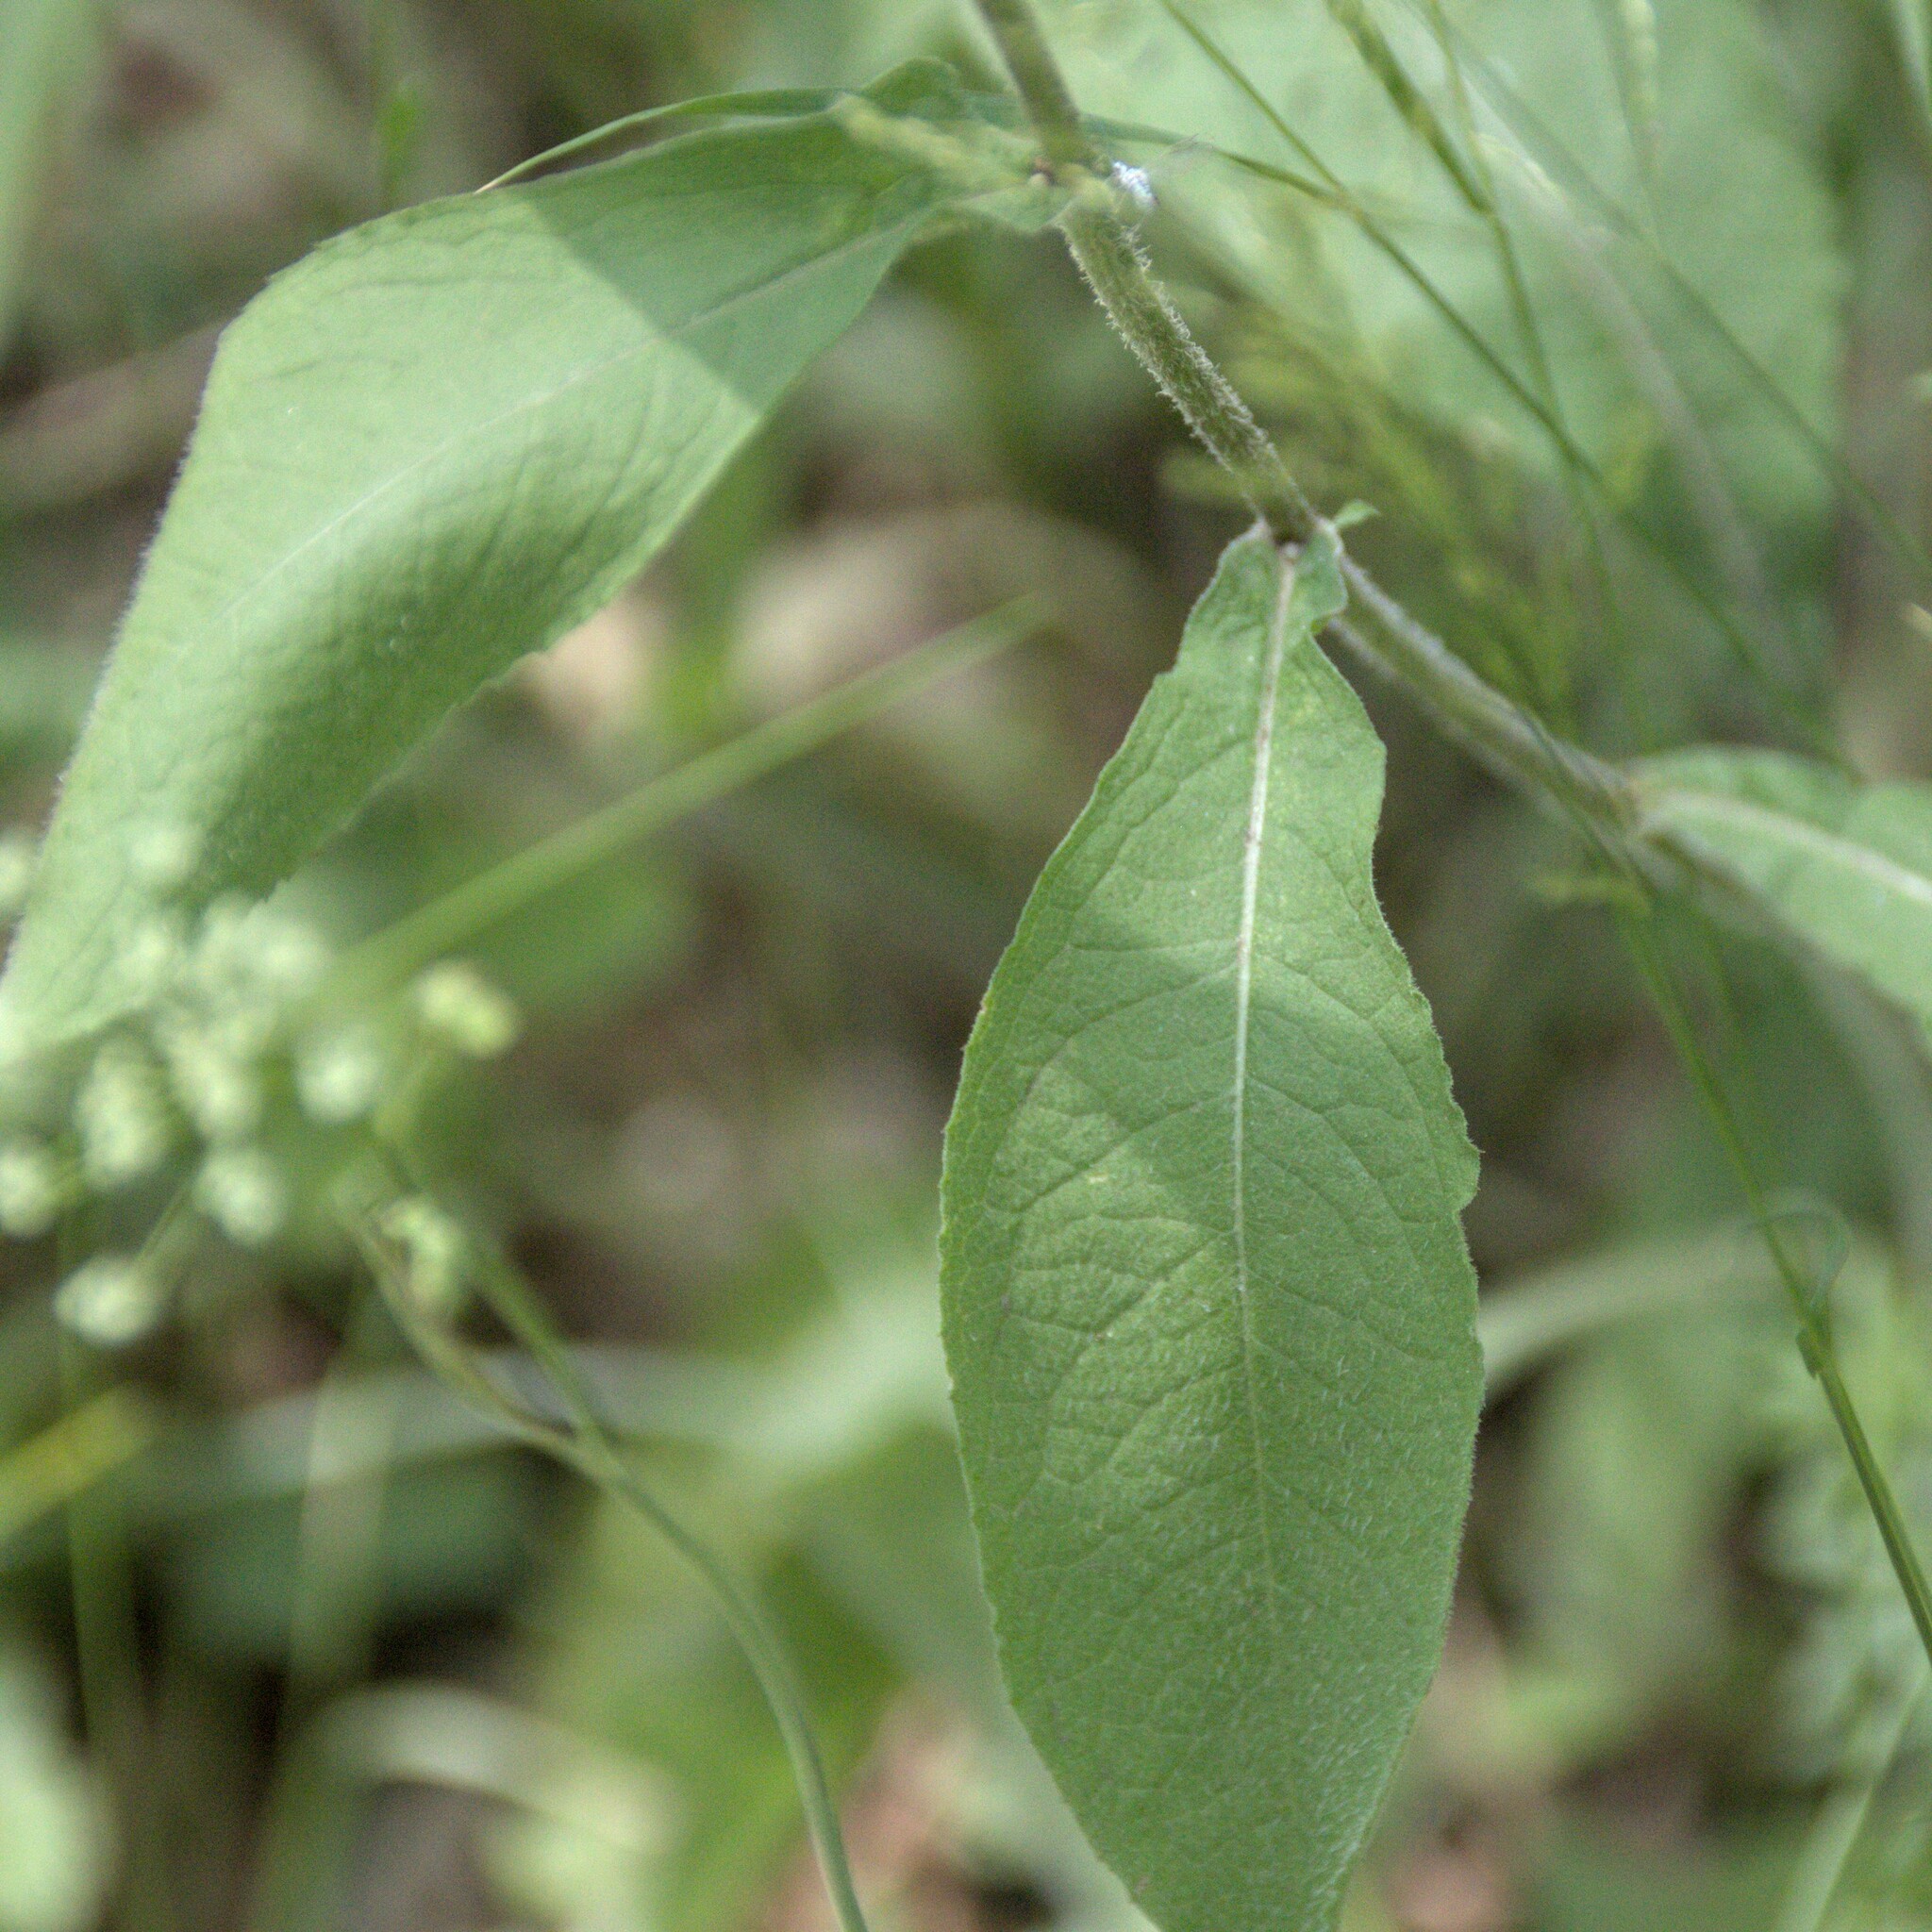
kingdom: Plantae
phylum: Tracheophyta
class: Magnoliopsida
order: Asterales
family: Asteraceae
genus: Centaurea
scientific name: Centaurea phrygia
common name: Wig knapweed
